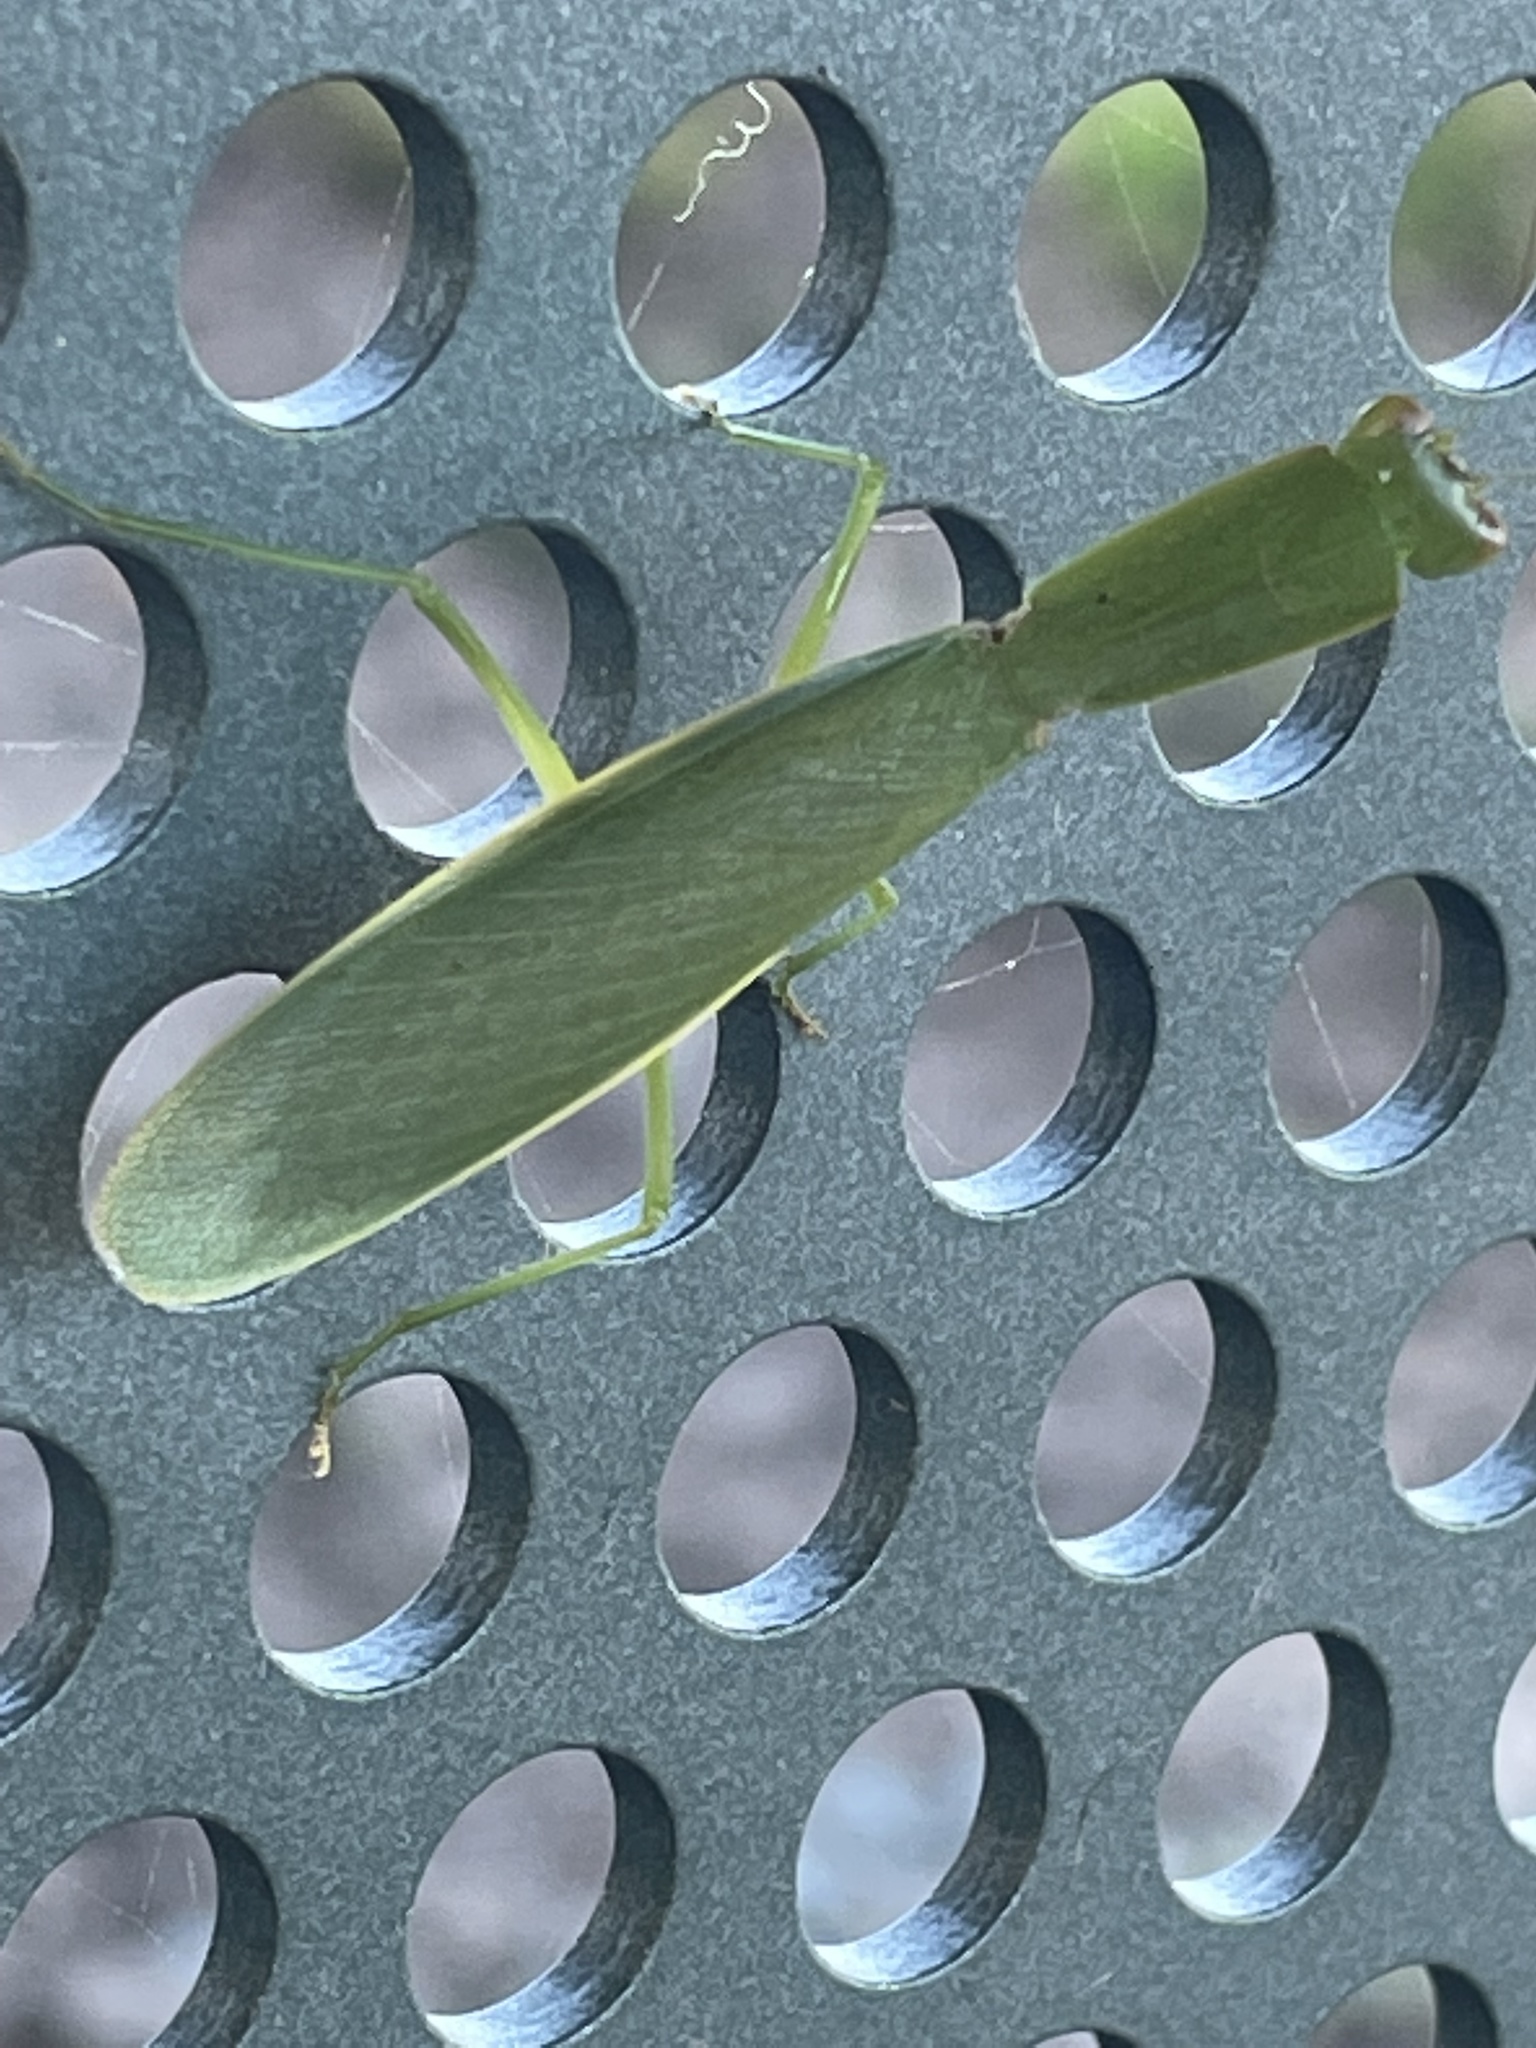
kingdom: Animalia
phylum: Arthropoda
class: Insecta
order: Mantodea
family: Mantidae
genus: Orthodera
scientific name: Orthodera ministralis
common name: Mantis
